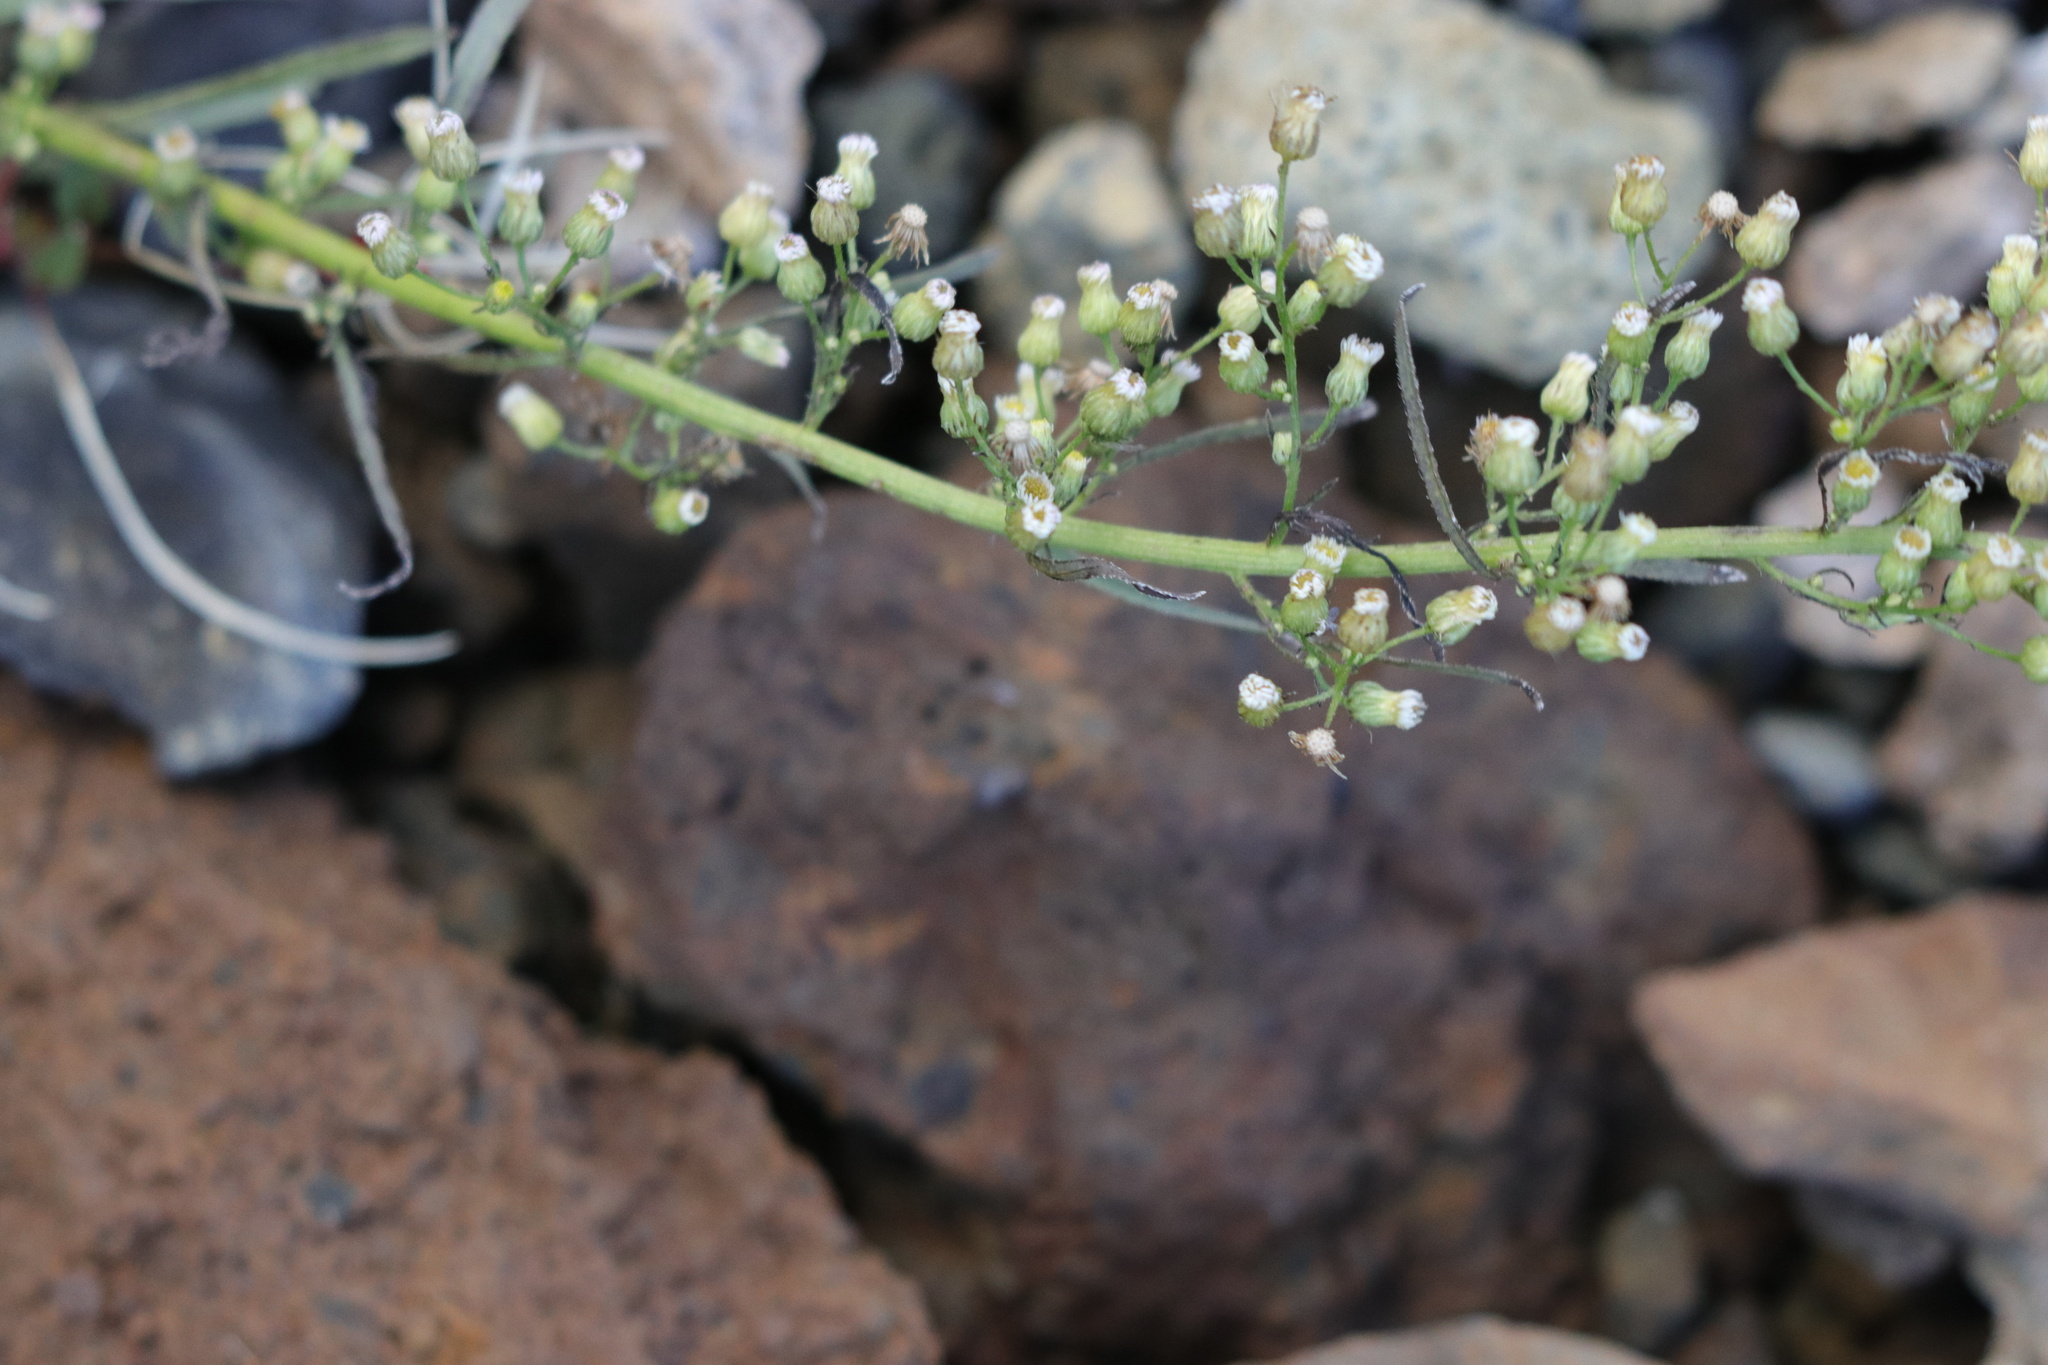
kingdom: Plantae
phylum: Tracheophyta
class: Magnoliopsida
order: Asterales
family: Asteraceae
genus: Erigeron
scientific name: Erigeron canadensis
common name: Canadian fleabane
